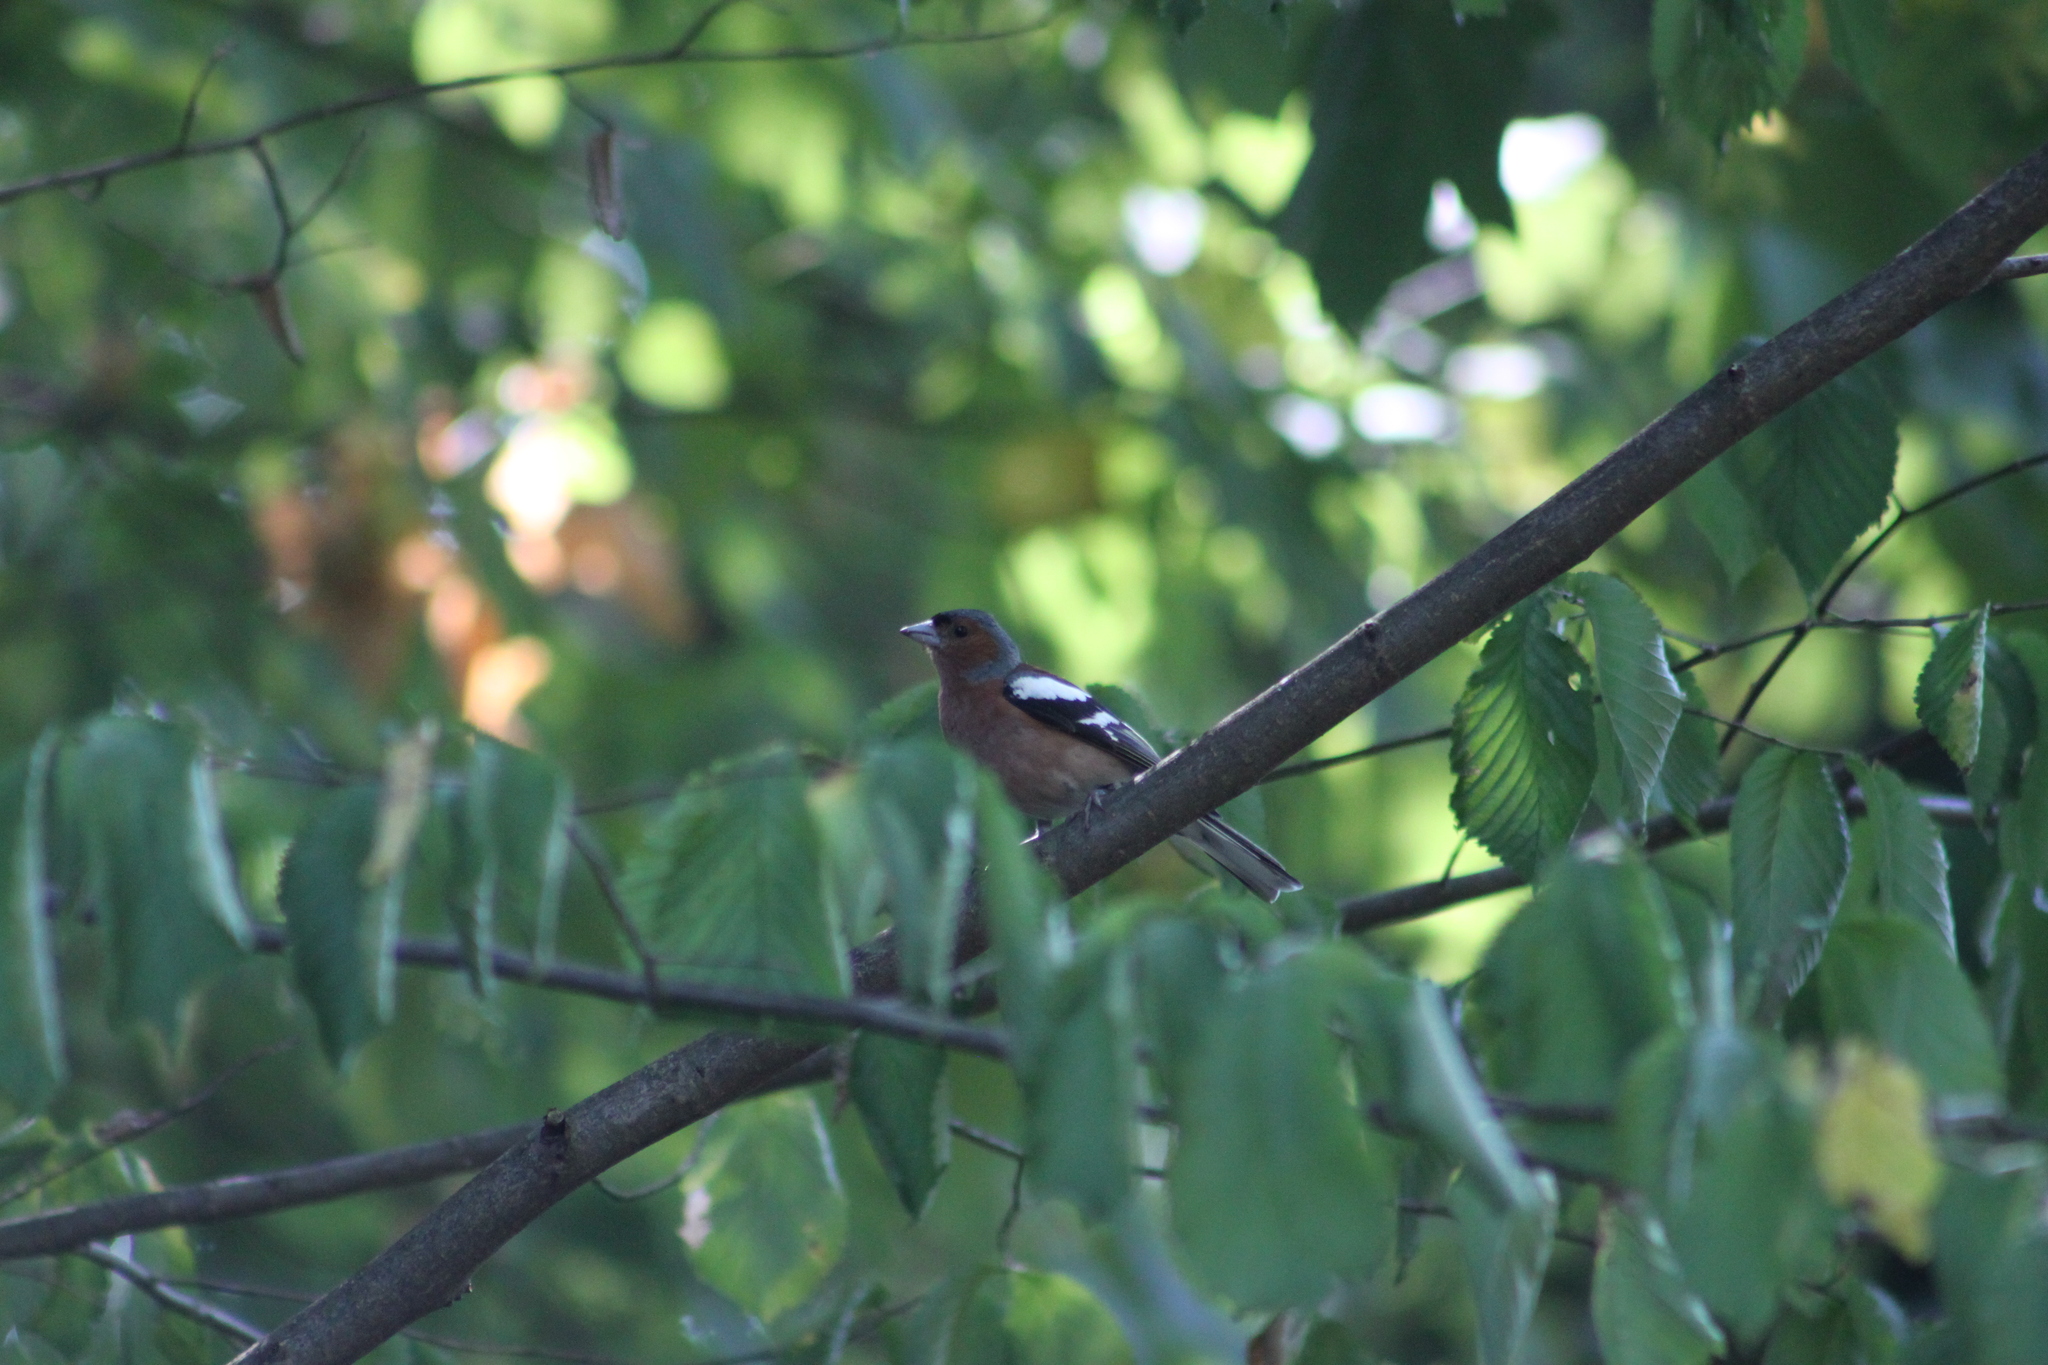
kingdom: Animalia
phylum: Chordata
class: Aves
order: Passeriformes
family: Fringillidae
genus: Fringilla
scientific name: Fringilla coelebs
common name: Common chaffinch
